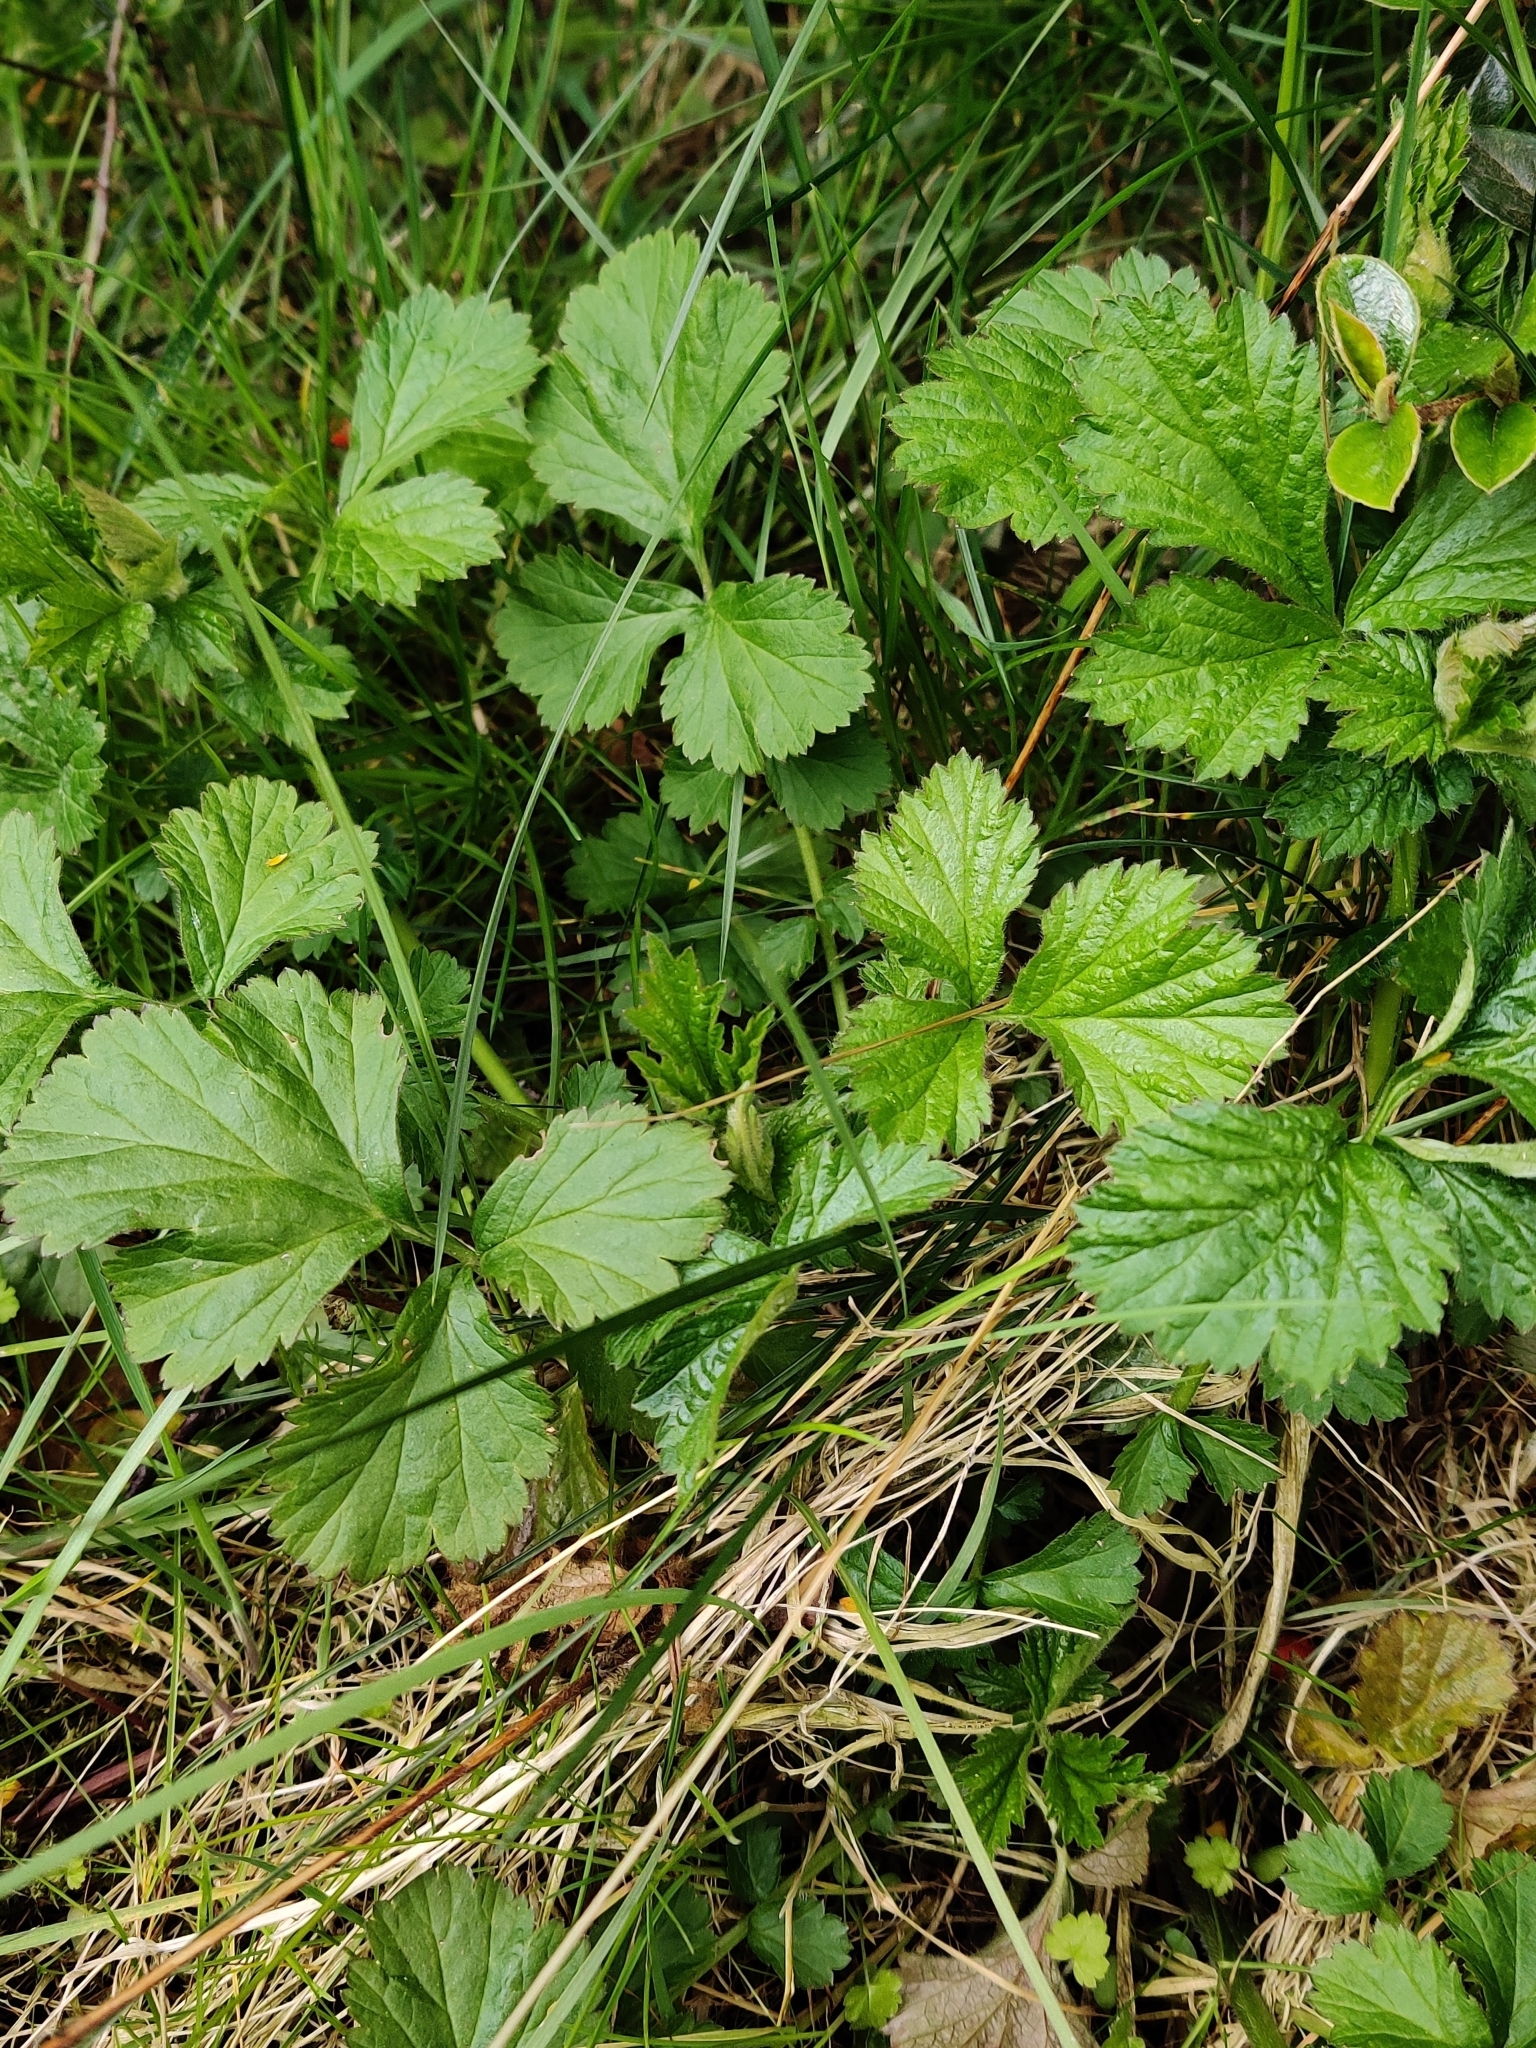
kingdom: Plantae
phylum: Tracheophyta
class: Magnoliopsida
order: Rosales
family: Rosaceae
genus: Geum
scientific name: Geum urbanum
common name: Wood avens
